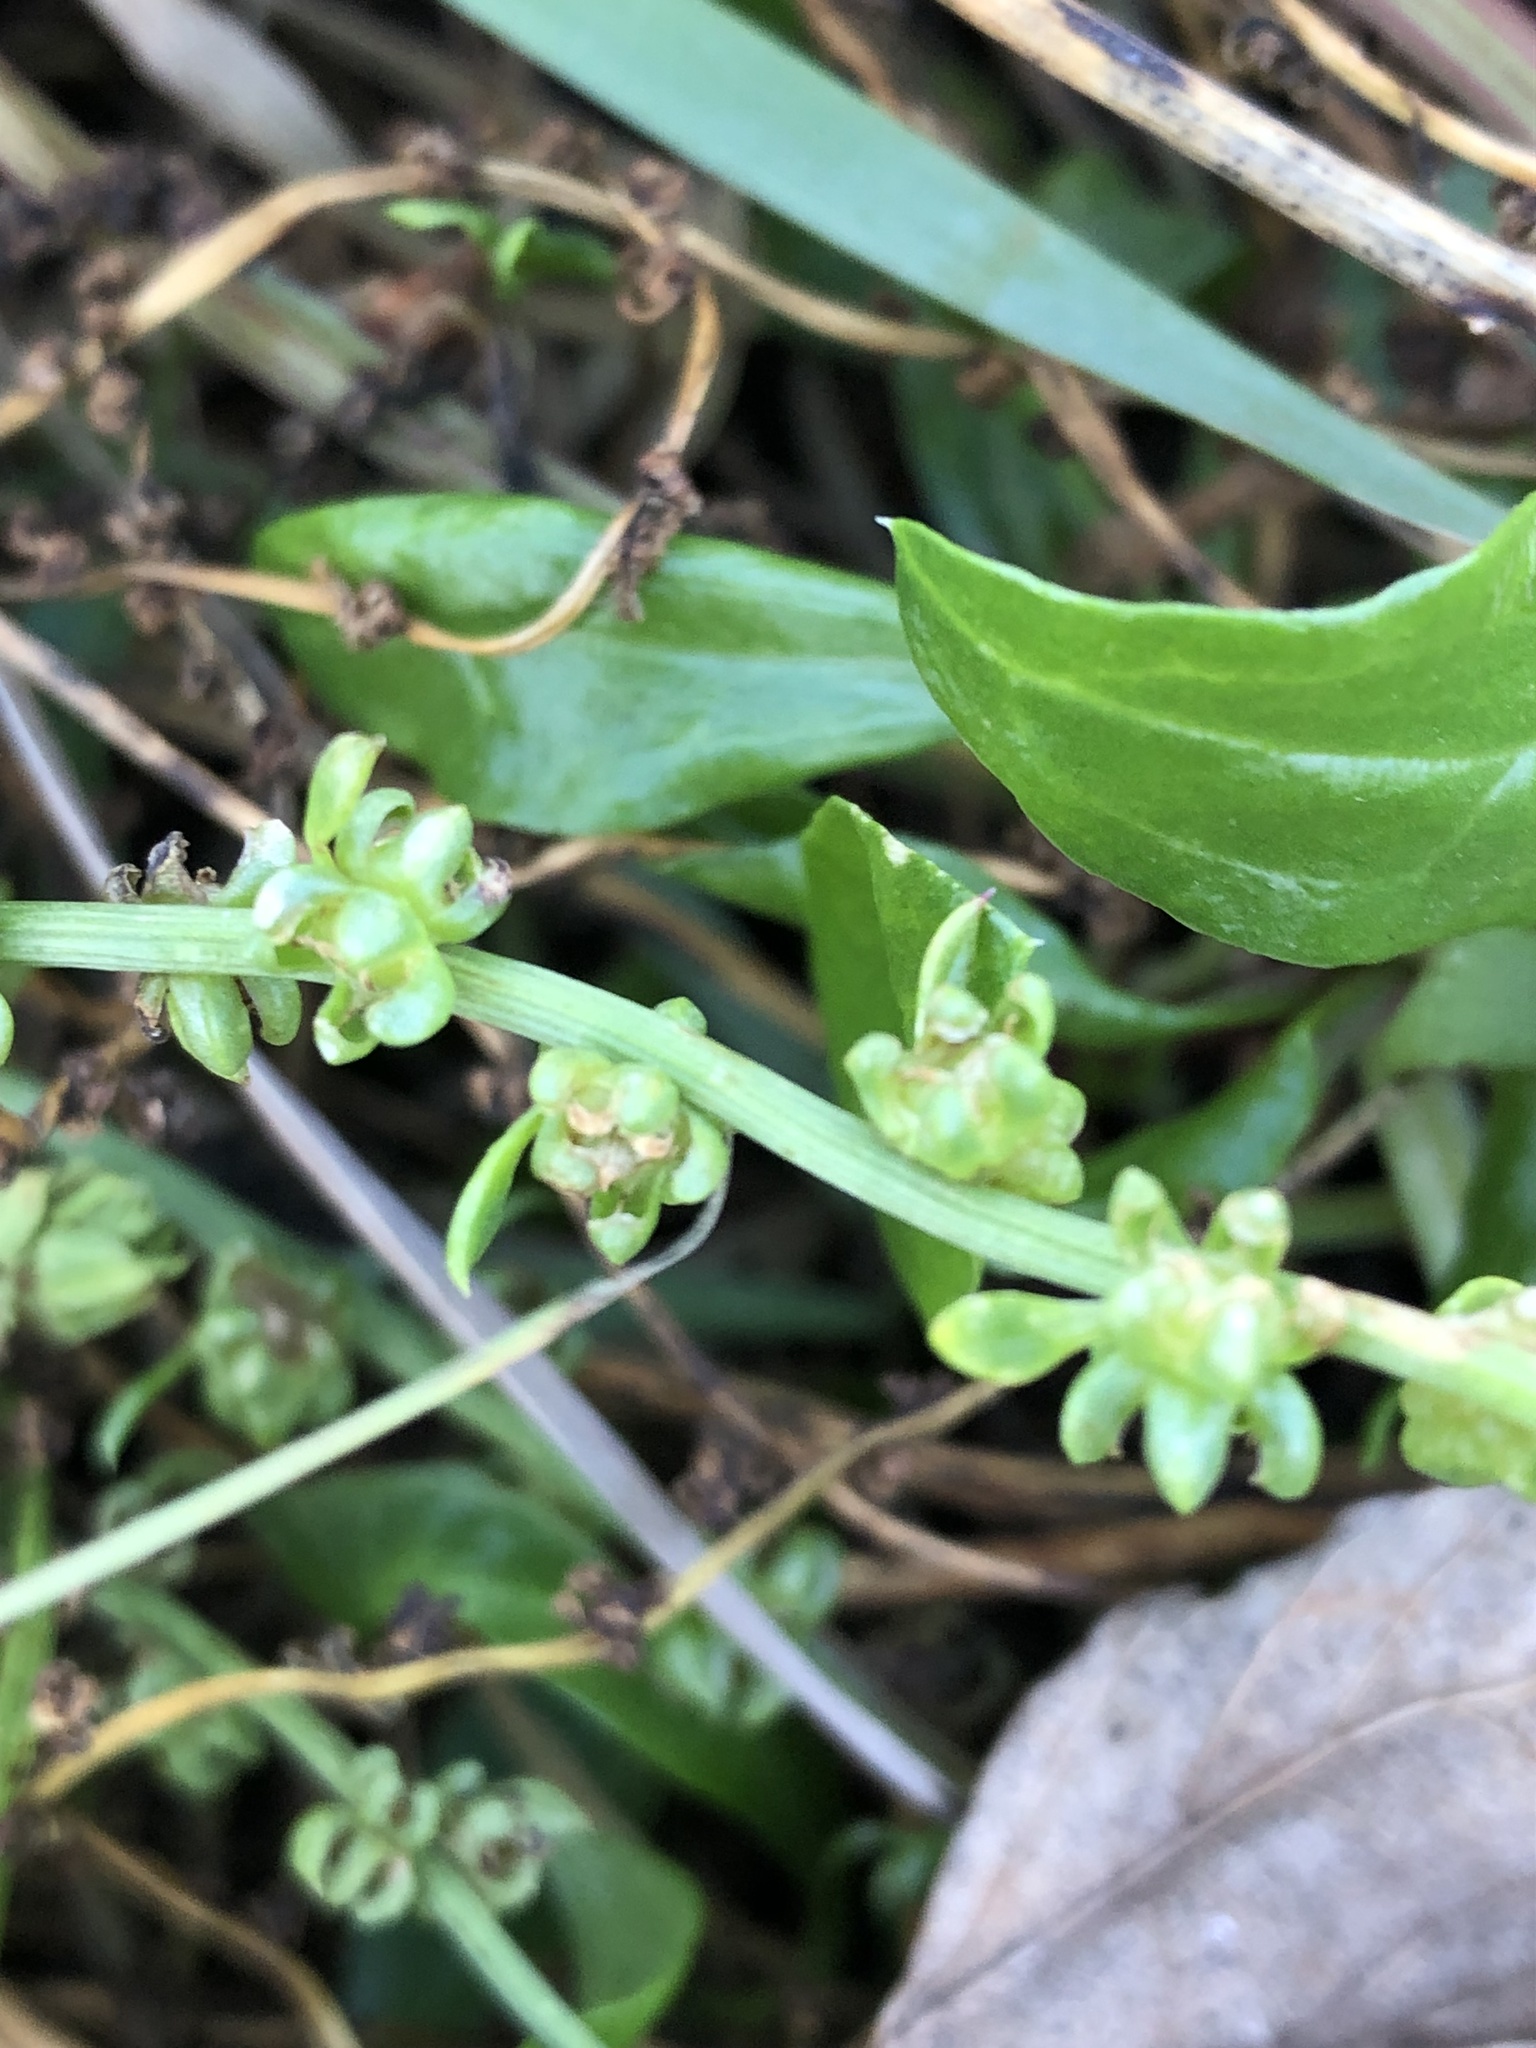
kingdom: Plantae
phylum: Tracheophyta
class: Magnoliopsida
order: Caryophyllales
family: Amaranthaceae
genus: Beta
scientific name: Beta vulgaris
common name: Beet
